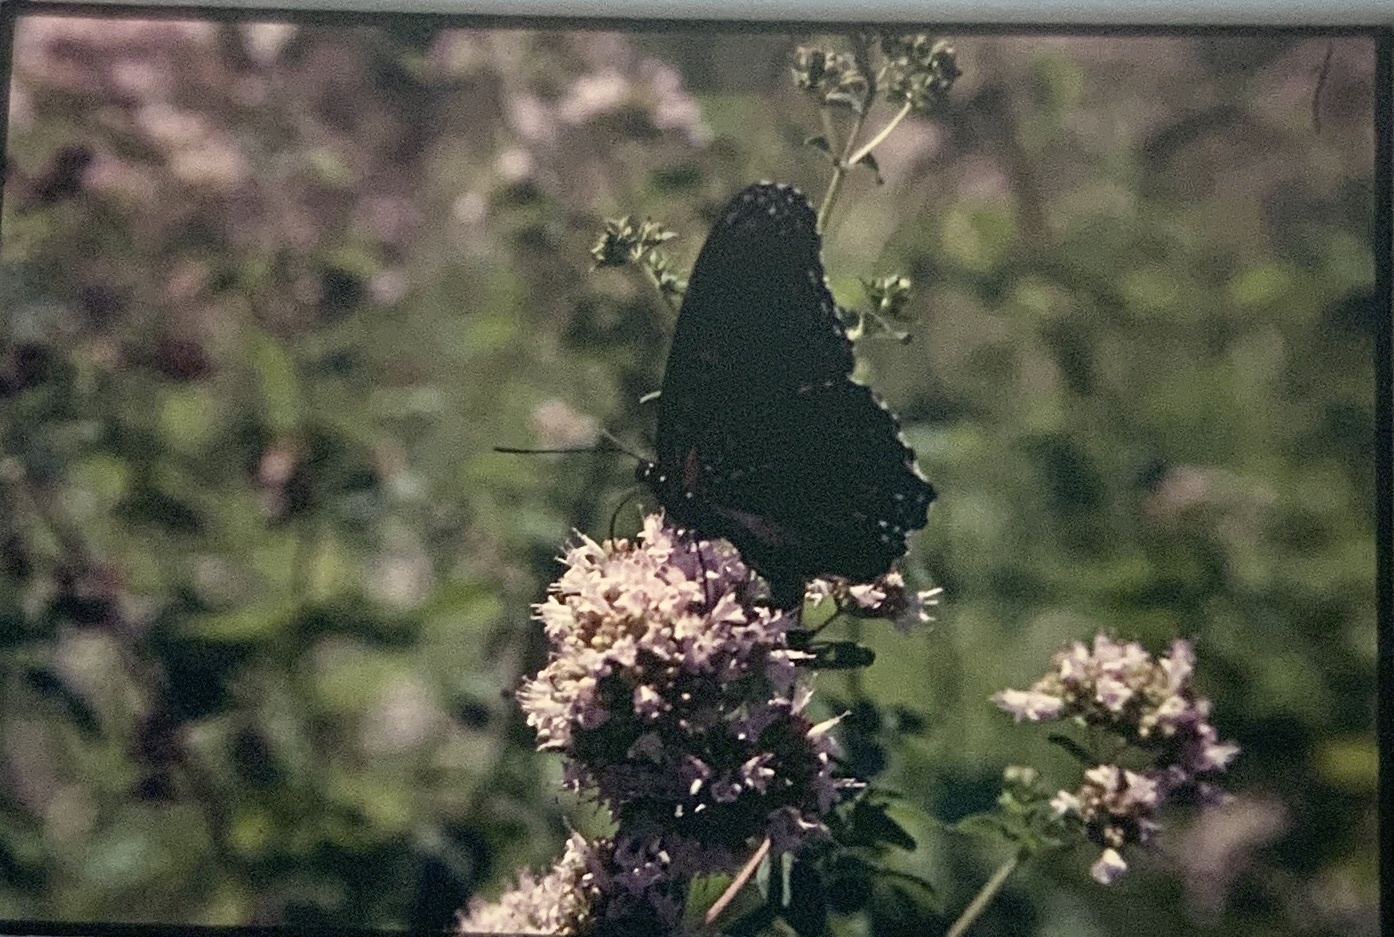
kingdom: Animalia
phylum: Arthropoda
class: Insecta
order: Lepidoptera
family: Nymphalidae
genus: Limenitis
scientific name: Limenitis arthemis
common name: Red-spotted admiral
